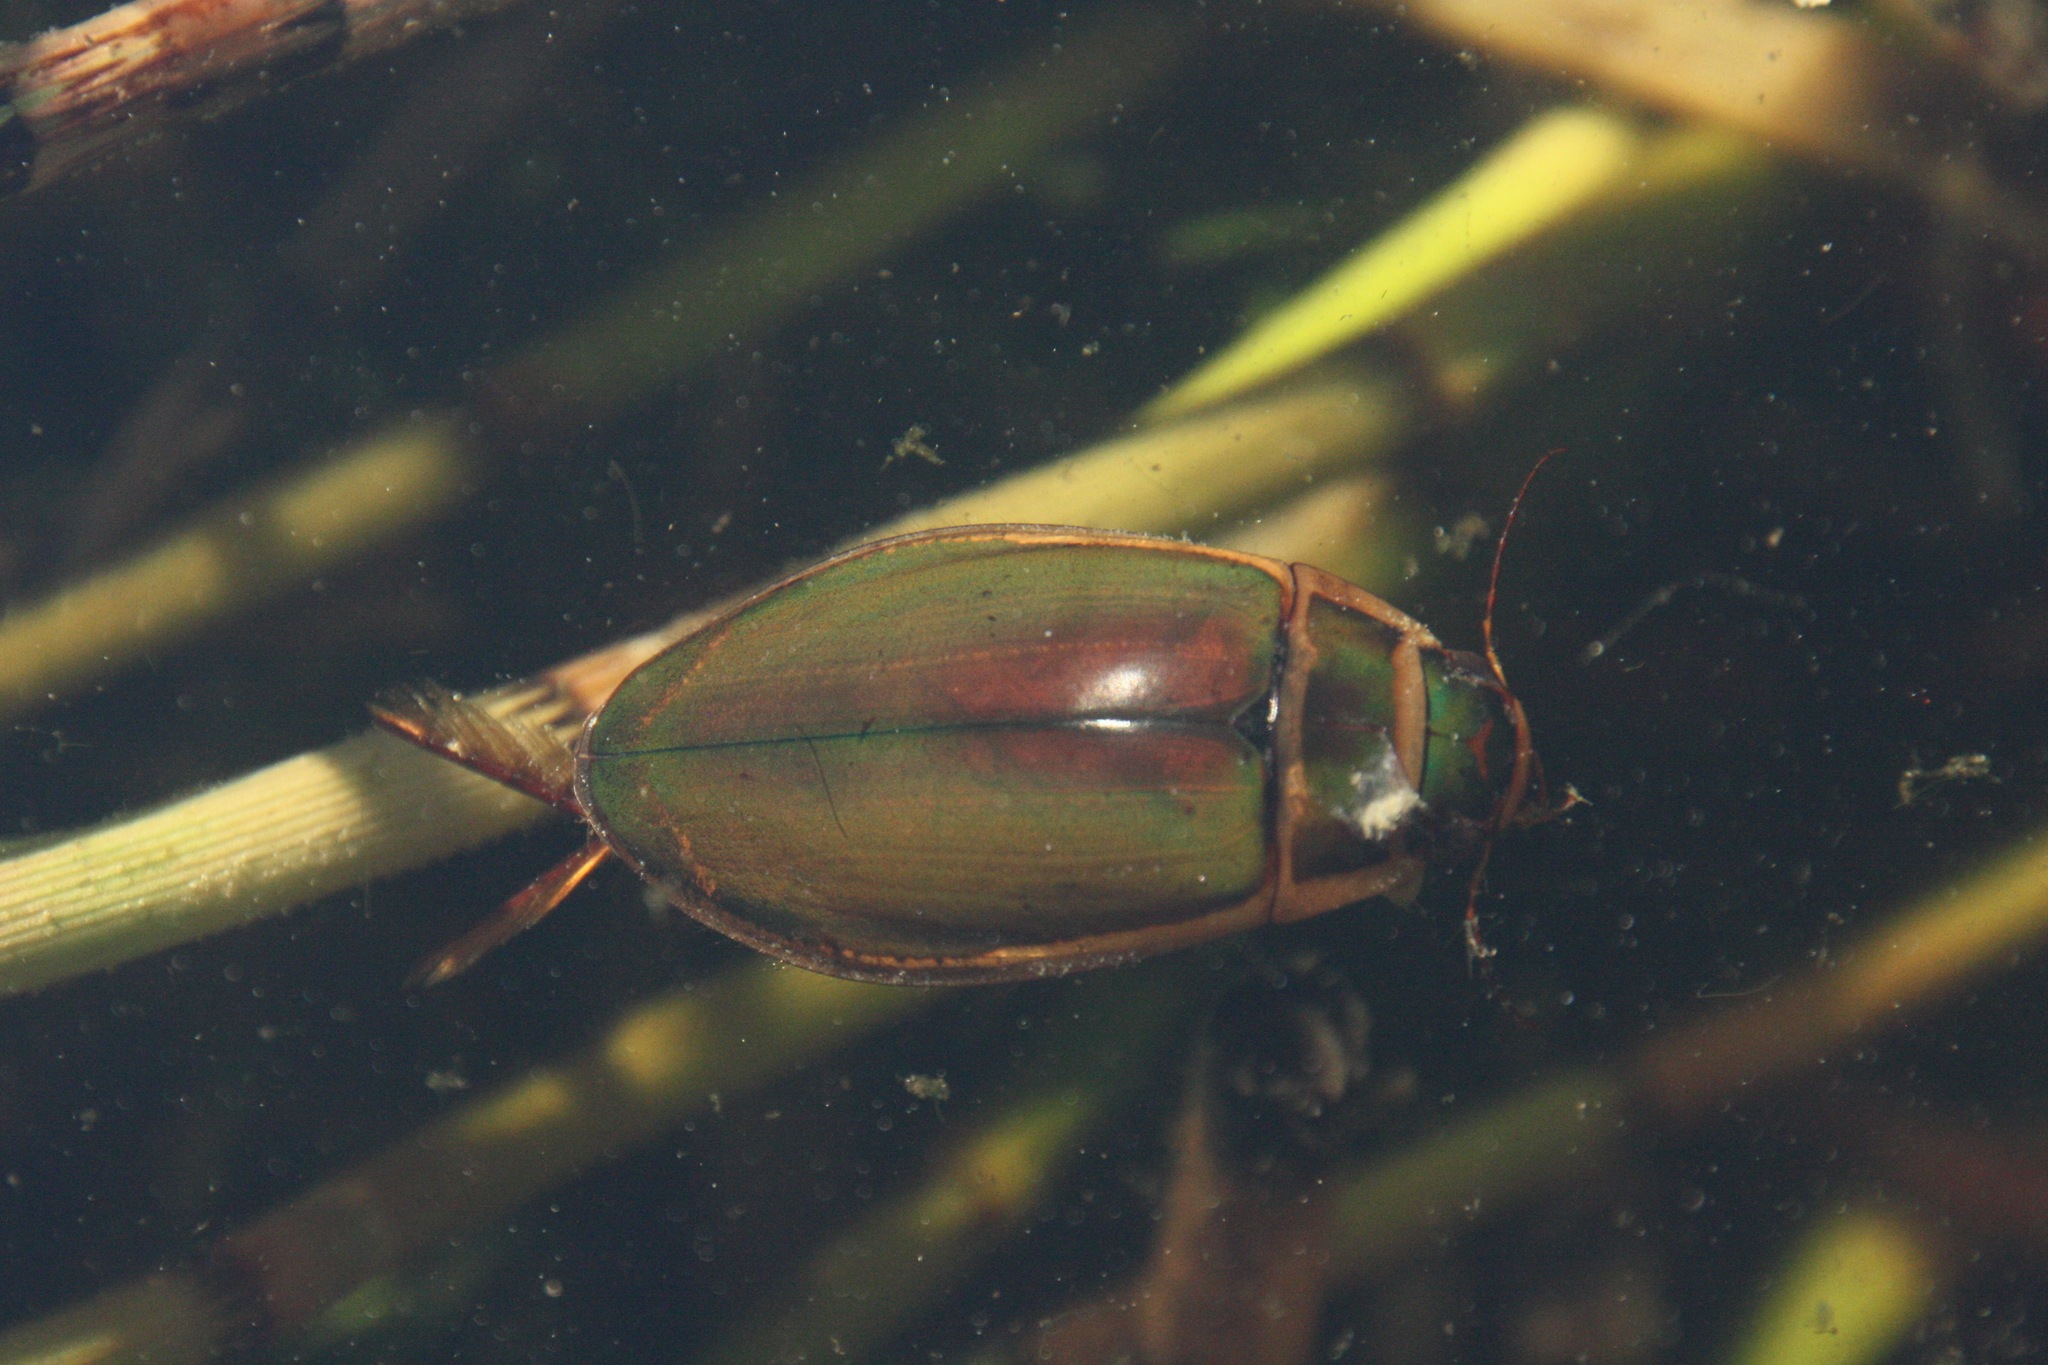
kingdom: Animalia
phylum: Arthropoda
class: Insecta
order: Coleoptera
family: Dytiscidae
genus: Dytiscus
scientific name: Dytiscus marginalis
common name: Great water beetle
